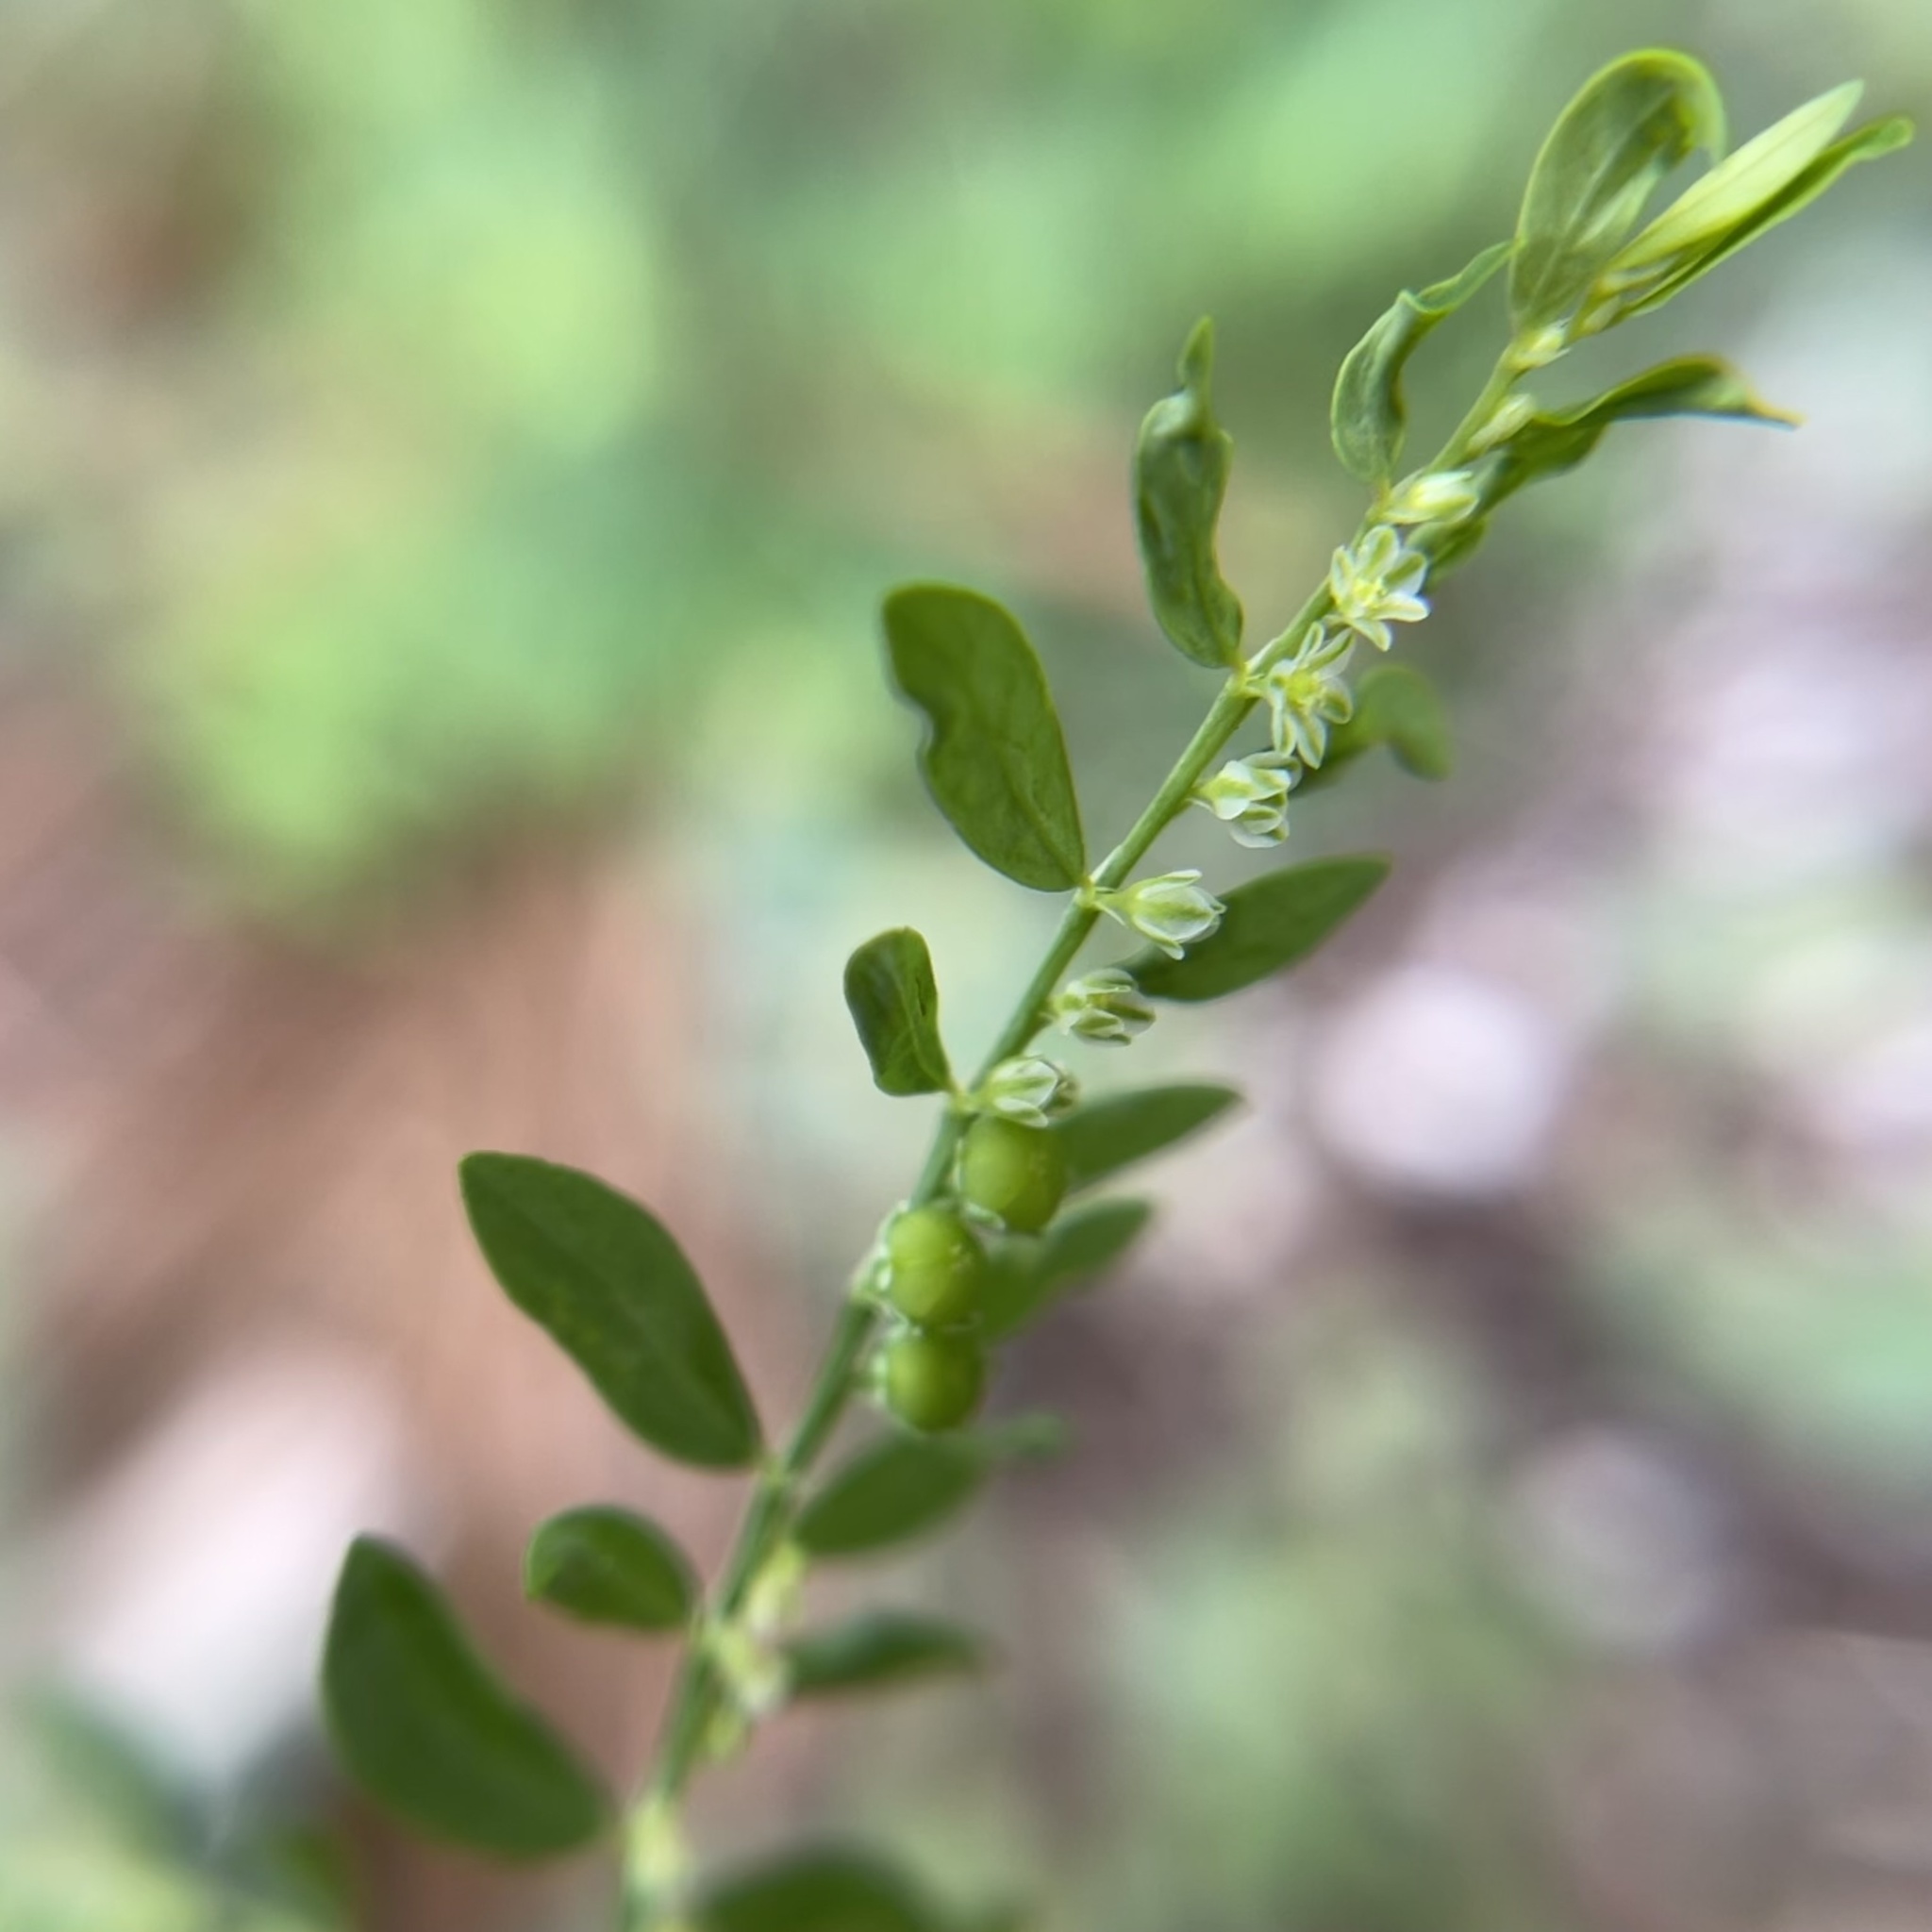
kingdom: Plantae
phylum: Tracheophyta
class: Magnoliopsida
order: Malpighiales
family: Phyllanthaceae
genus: Phyllanthus
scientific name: Phyllanthus debilis
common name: Niruri
